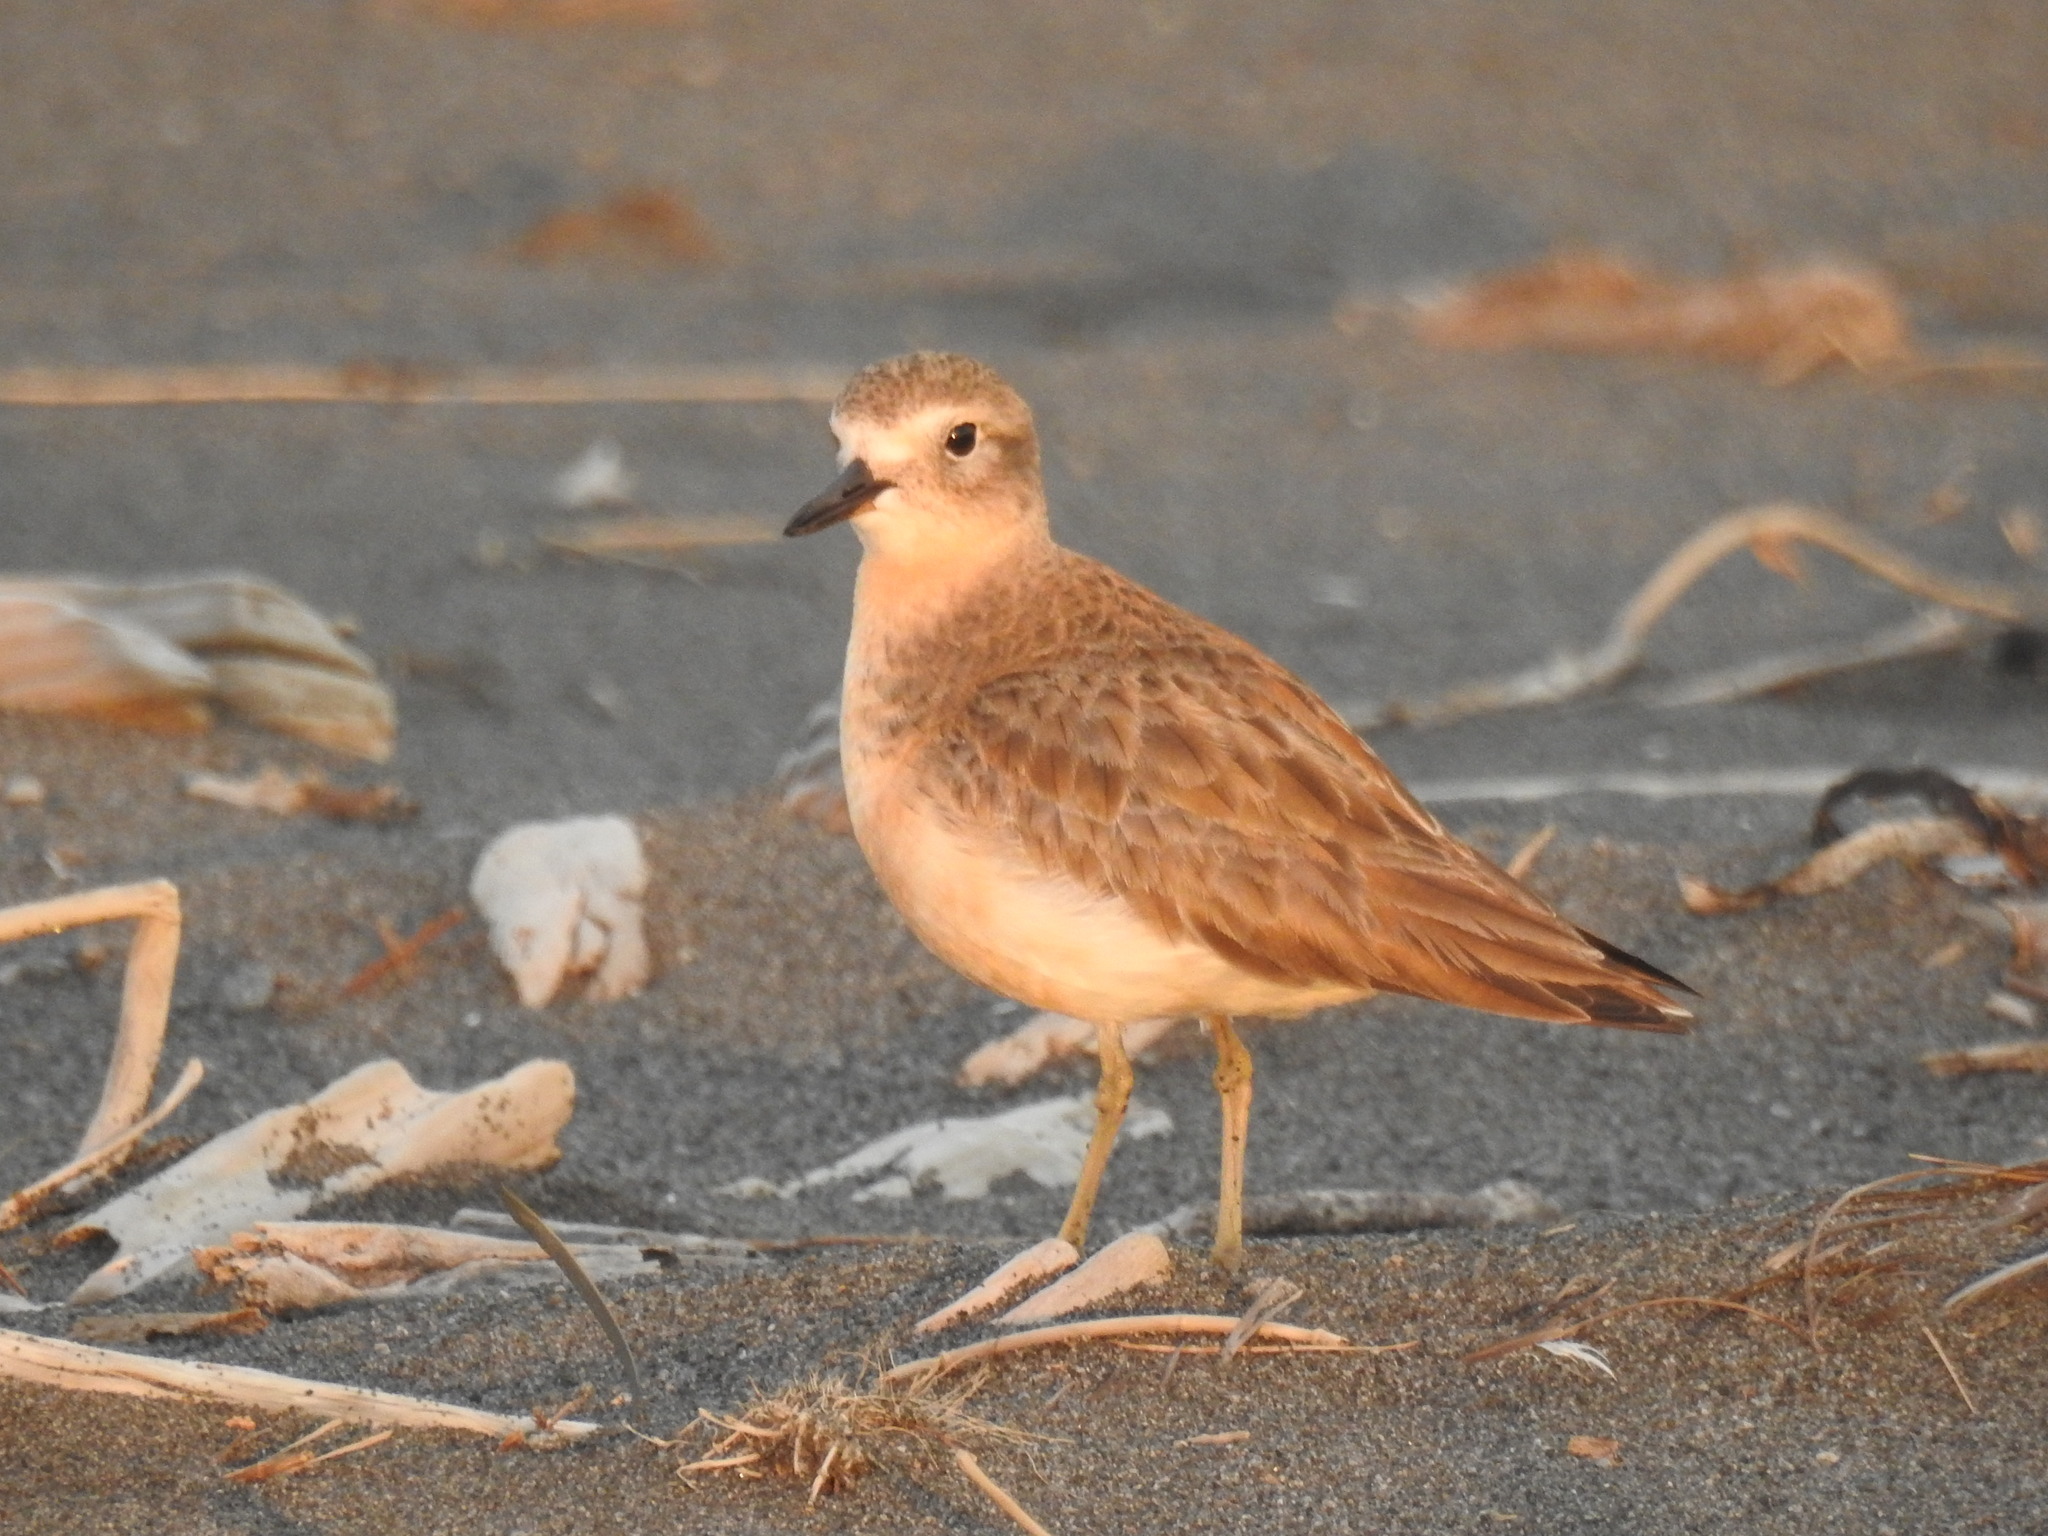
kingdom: Animalia
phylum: Chordata
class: Aves
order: Charadriiformes
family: Charadriidae
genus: Anarhynchus
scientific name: Anarhynchus
